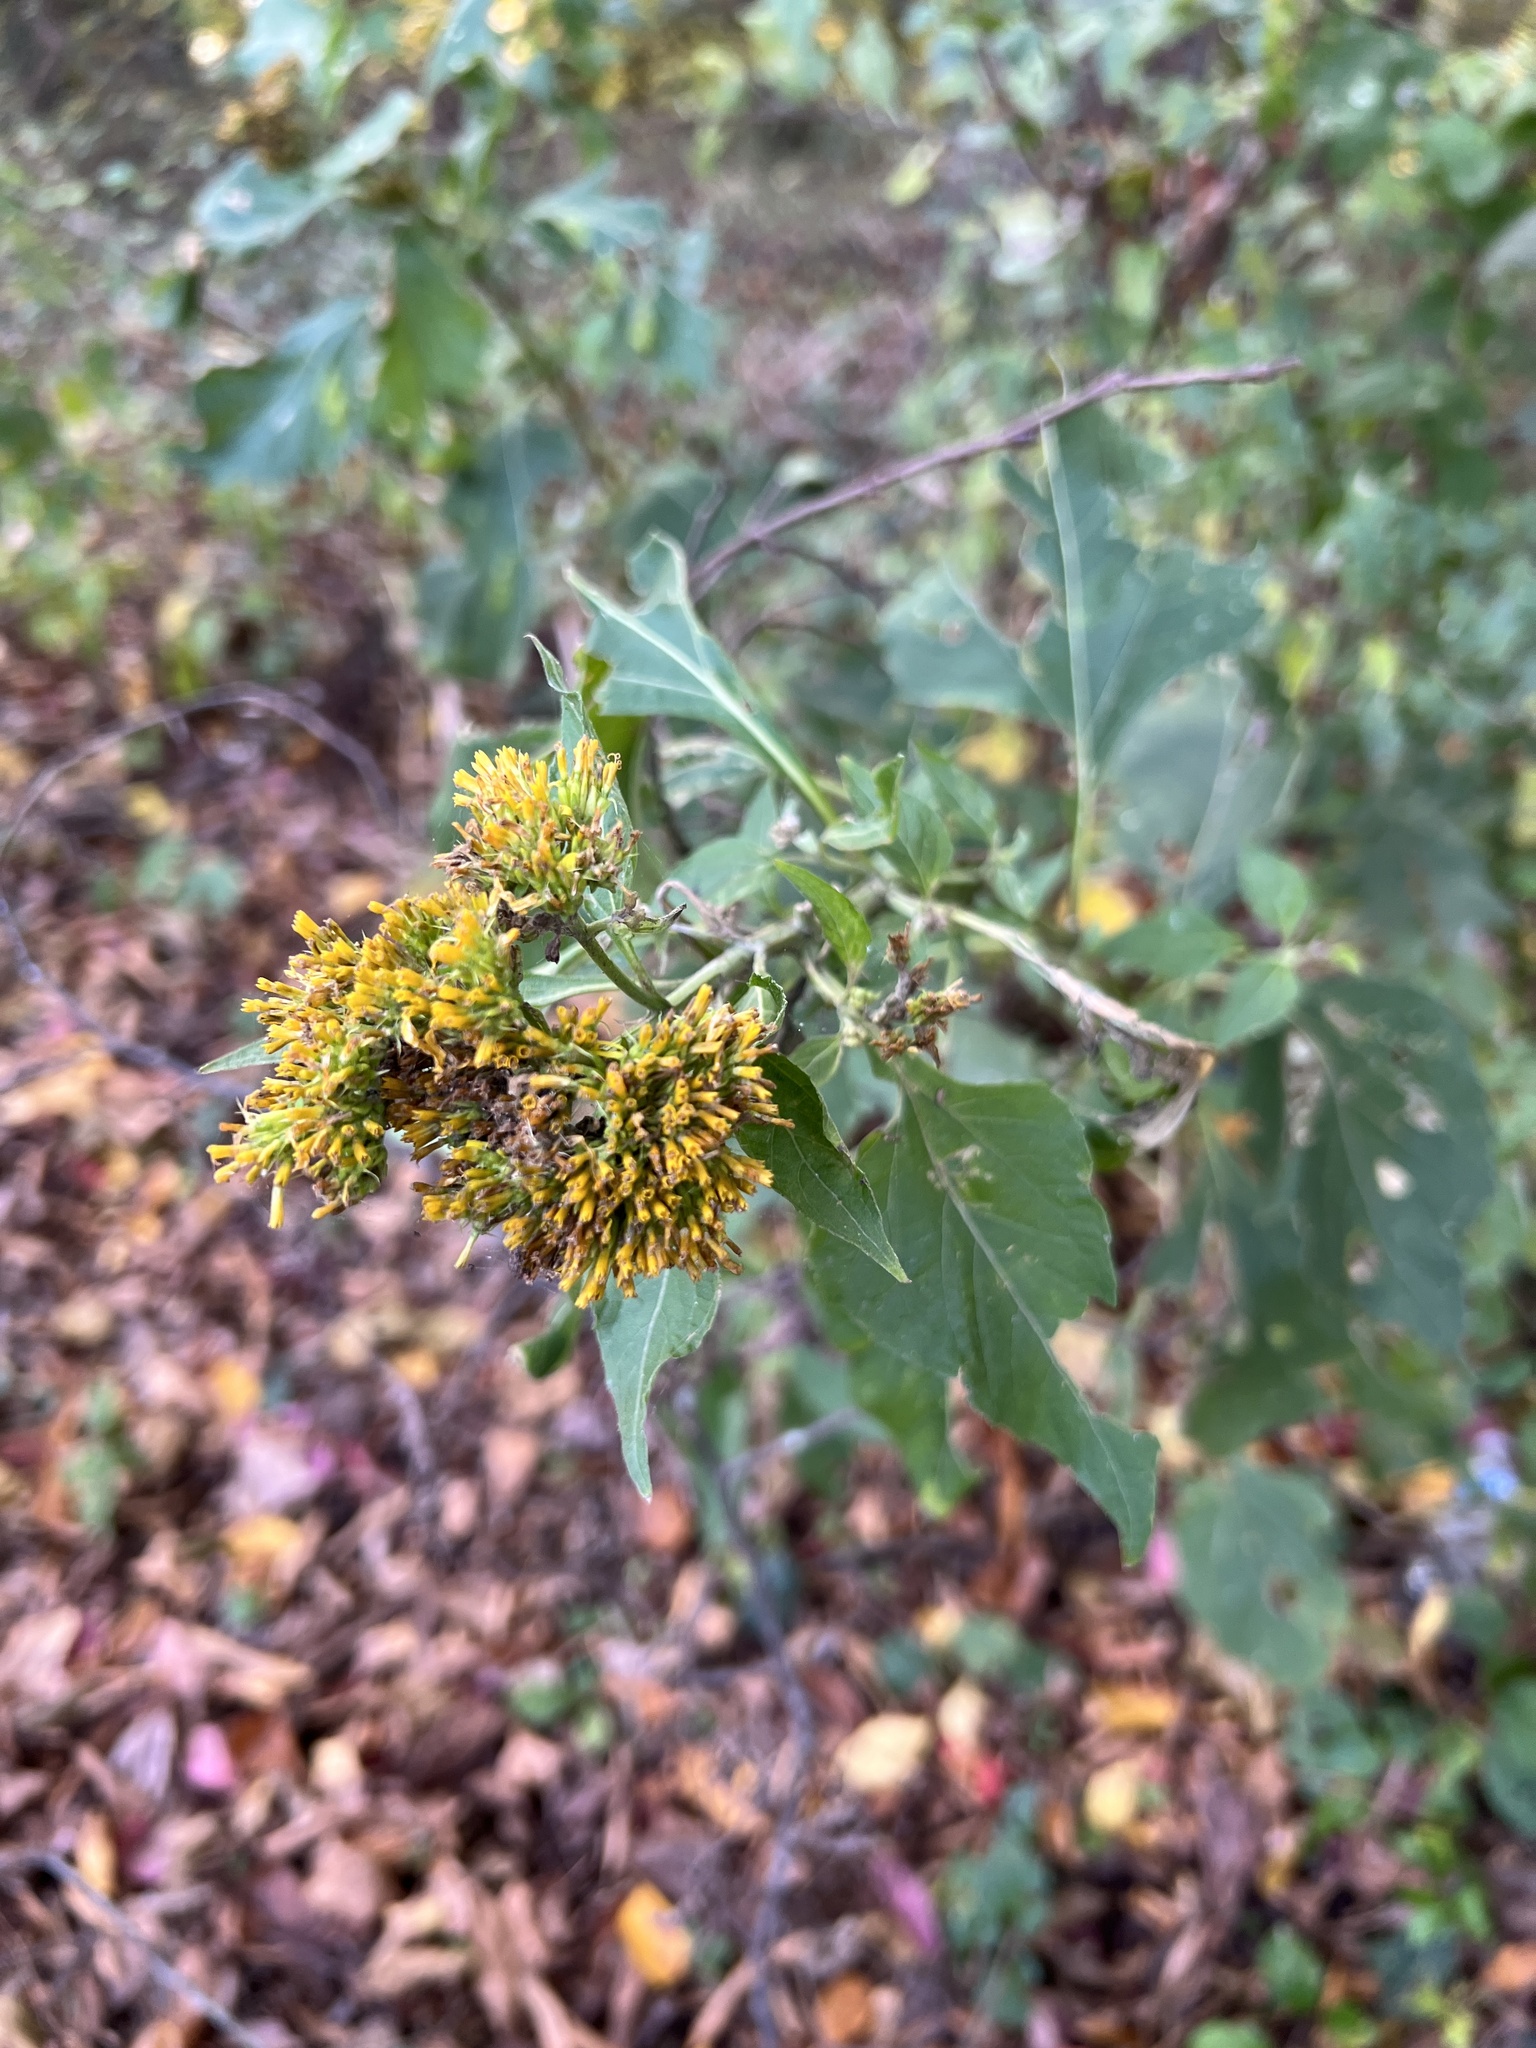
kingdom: Plantae
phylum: Tracheophyta
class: Magnoliopsida
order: Asterales
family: Asteraceae
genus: Verbesina
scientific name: Verbesina occidentalis
